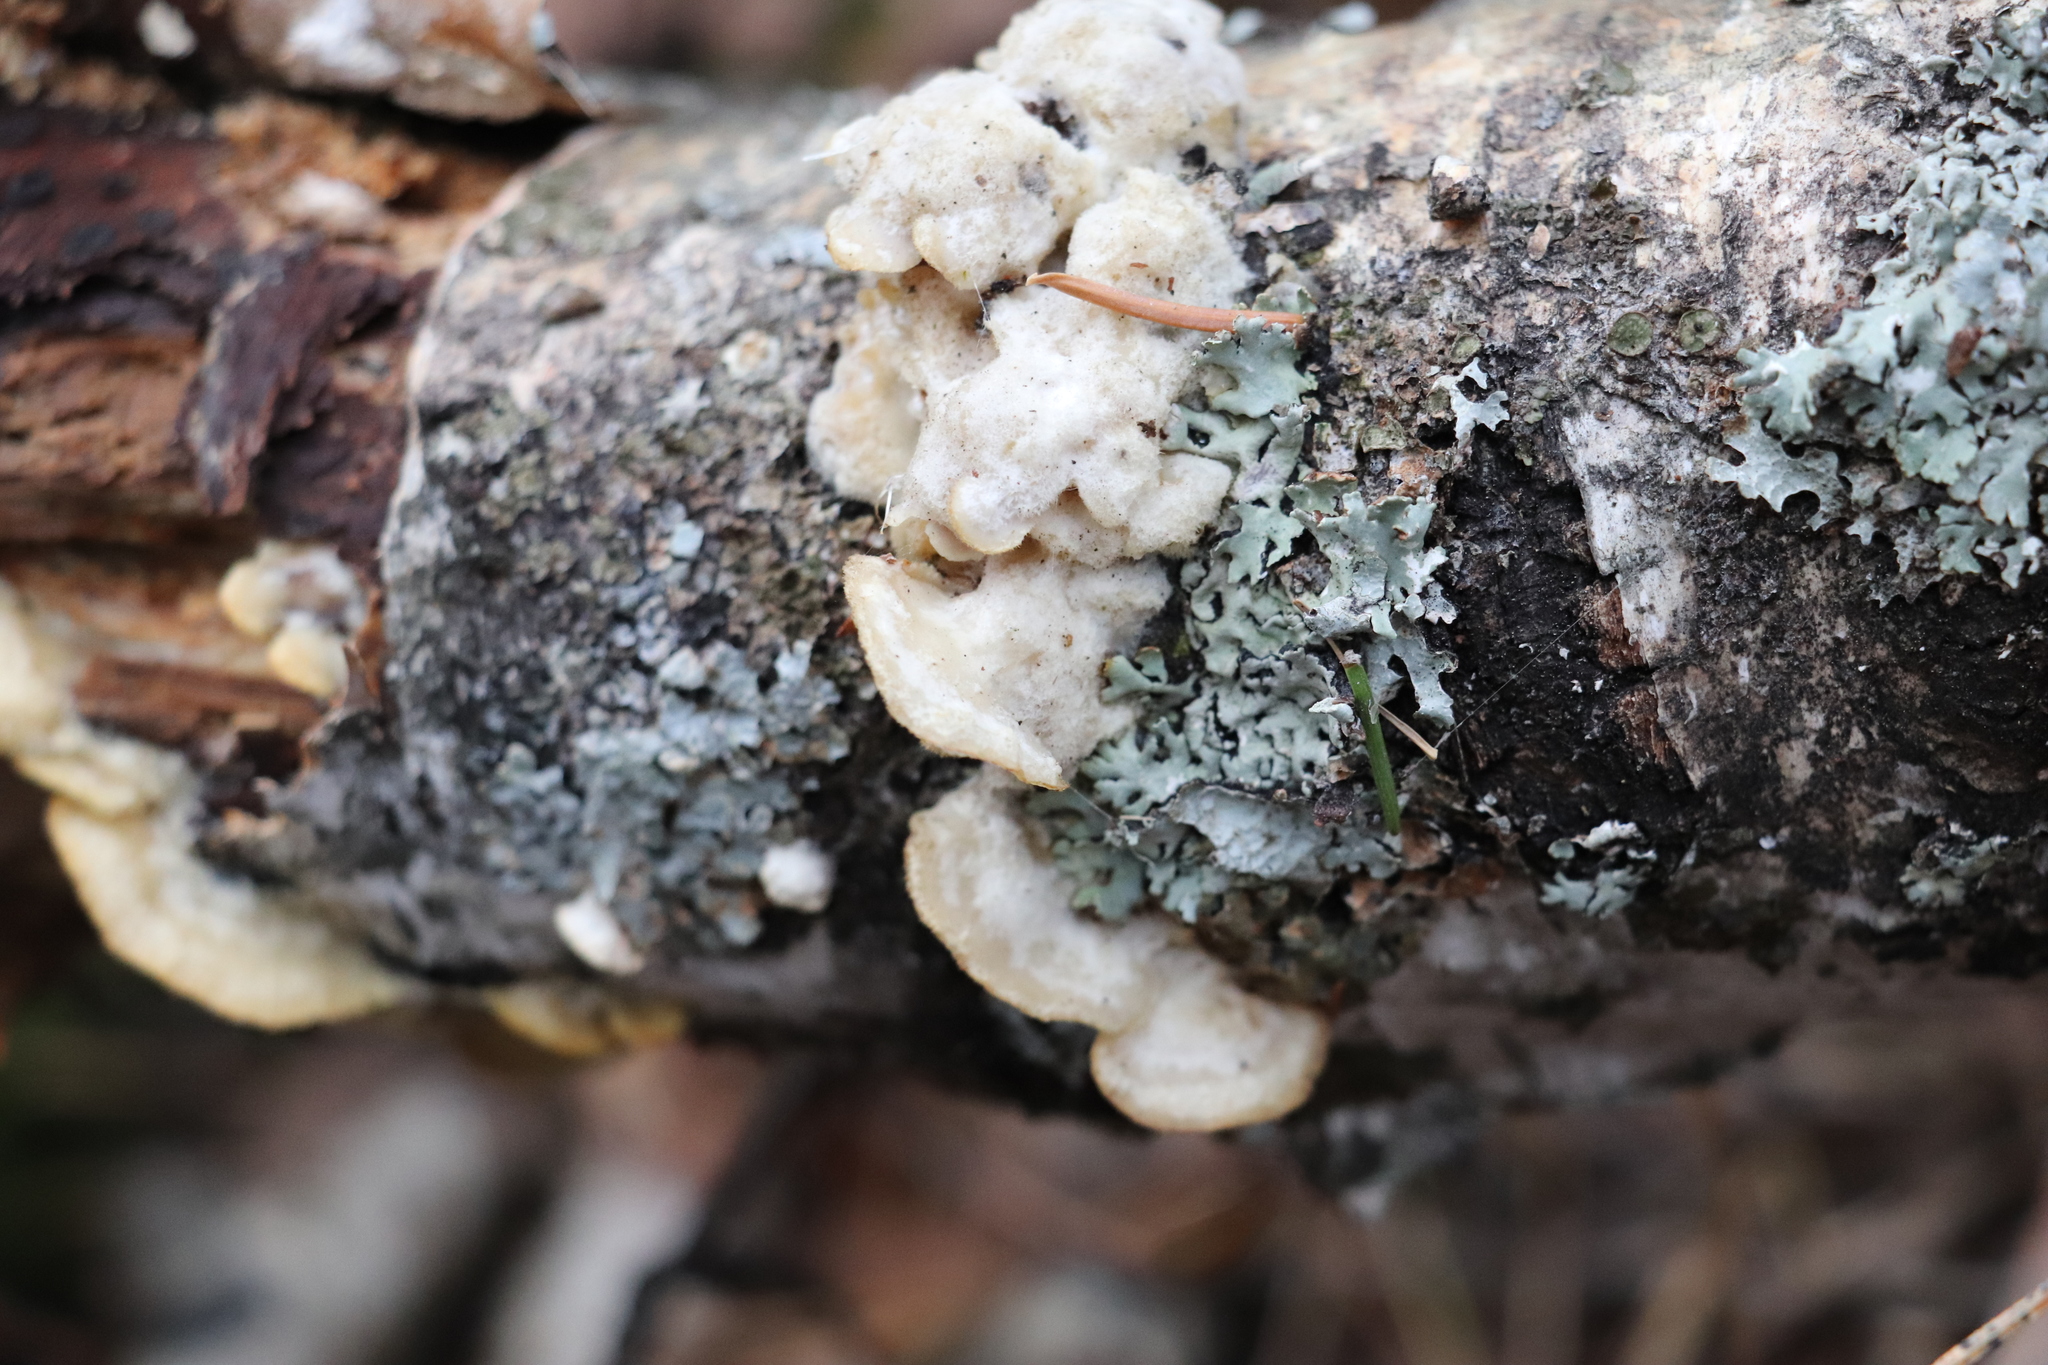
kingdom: Fungi
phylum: Basidiomycota
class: Agaricomycetes
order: Polyporales
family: Irpicaceae
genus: Vitreoporus
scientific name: Vitreoporus dichrous
